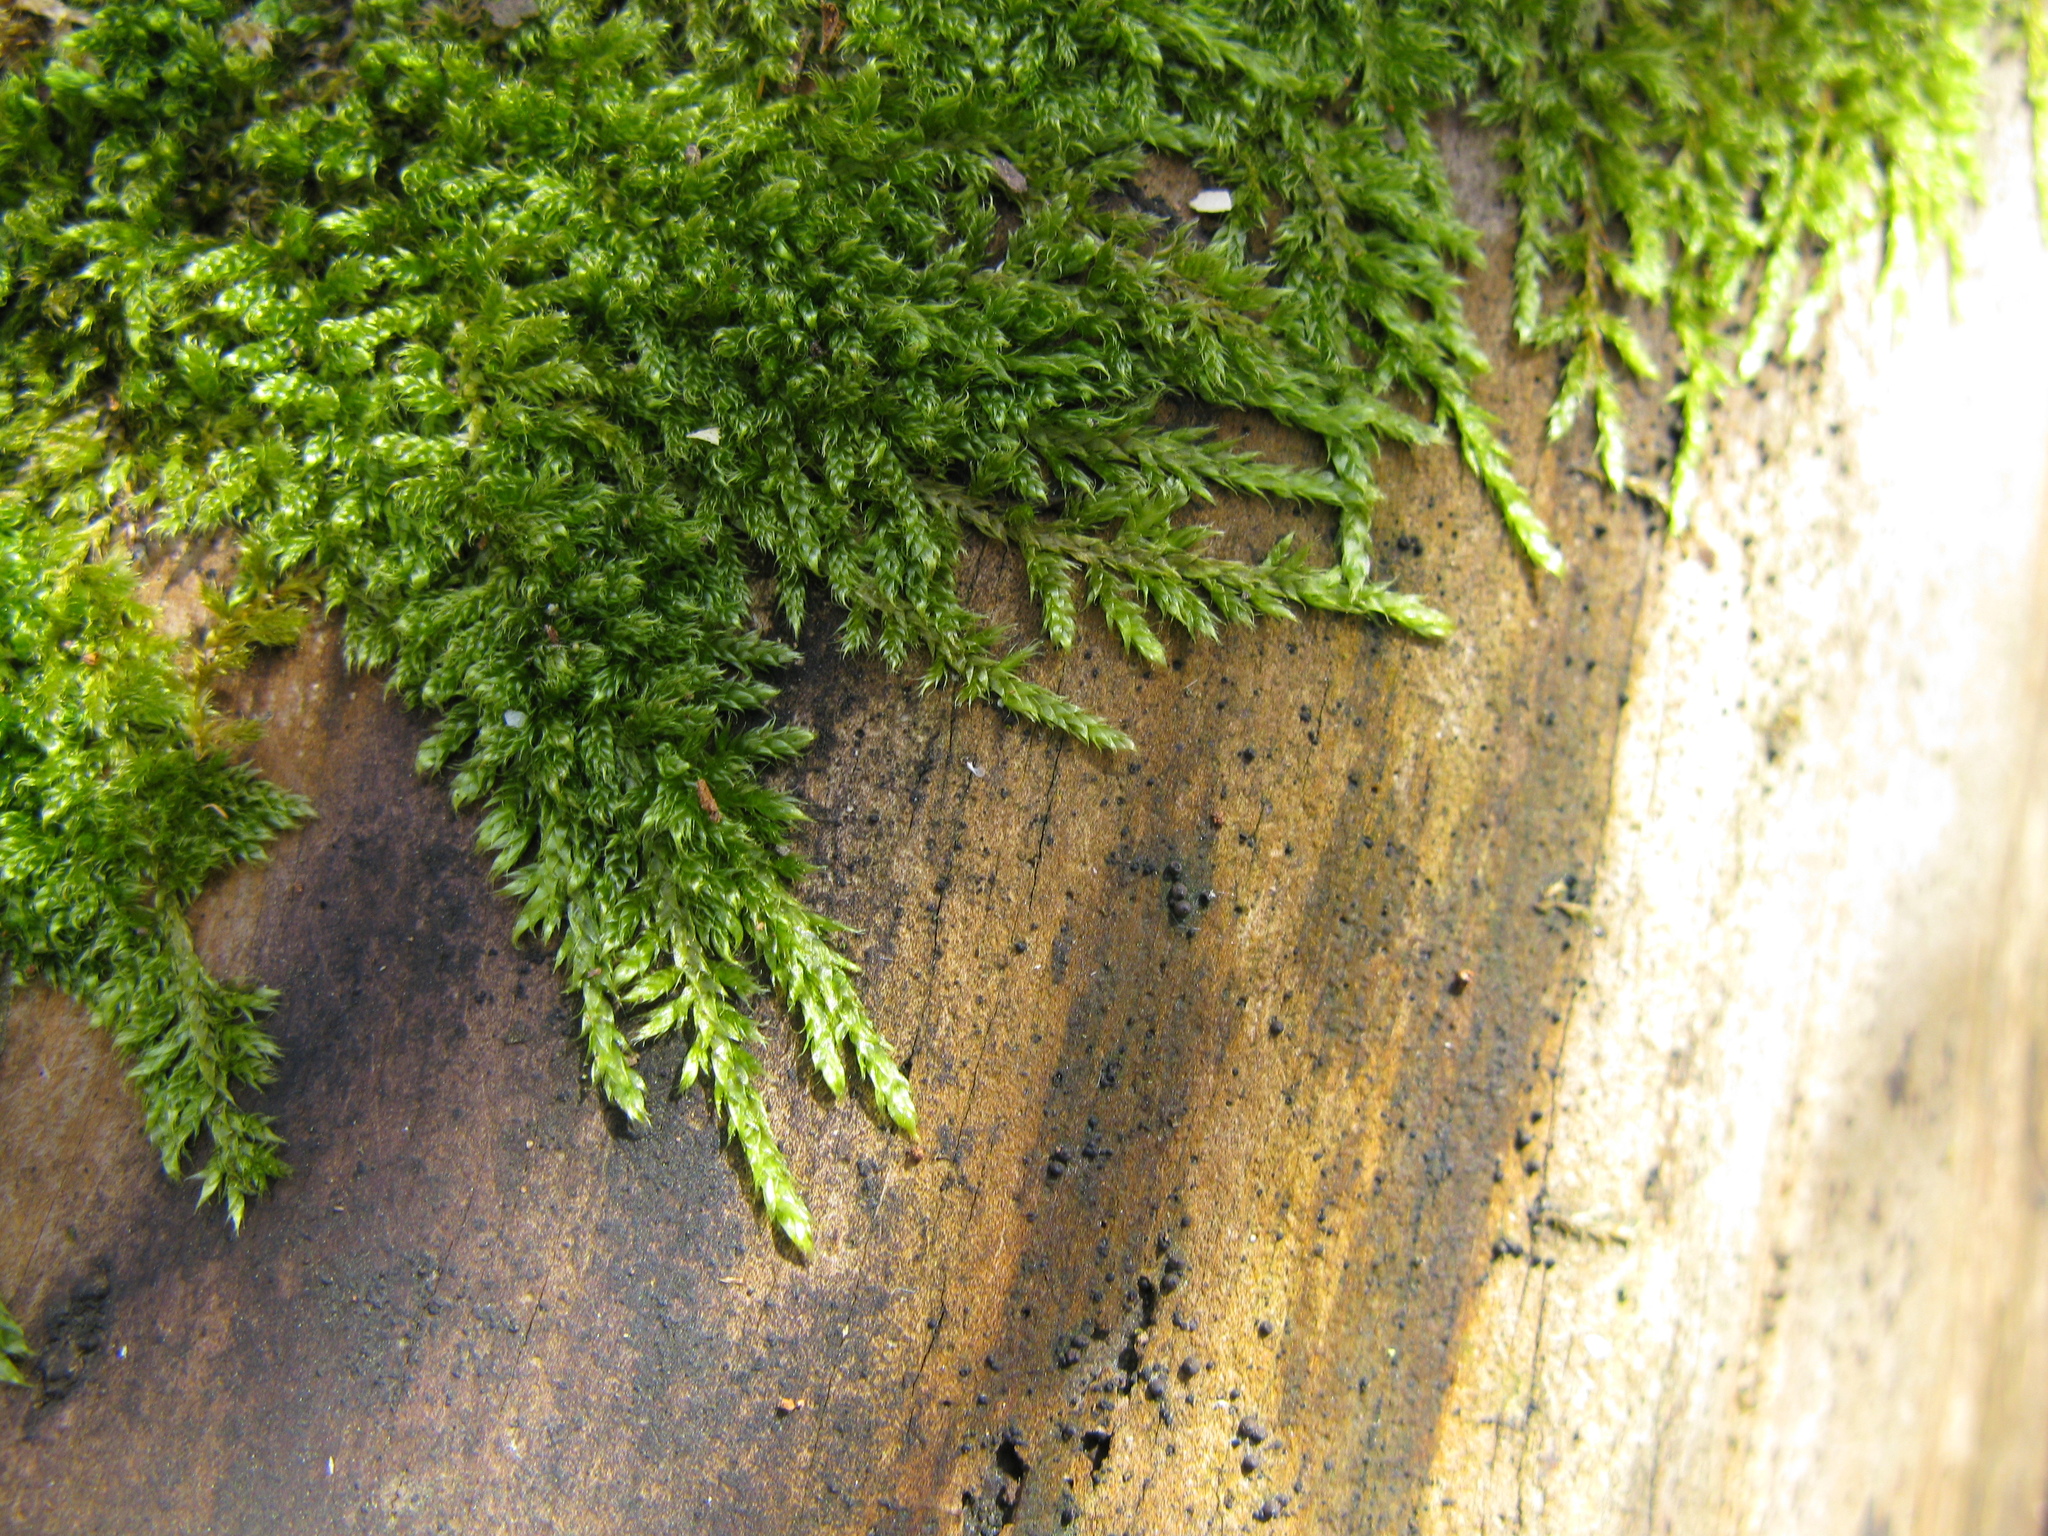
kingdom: Plantae
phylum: Bryophyta
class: Bryopsida
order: Hypnales
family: Hypnaceae
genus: Hypnum
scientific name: Hypnum cupressiforme
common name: Cypress-leaved plait-moss
